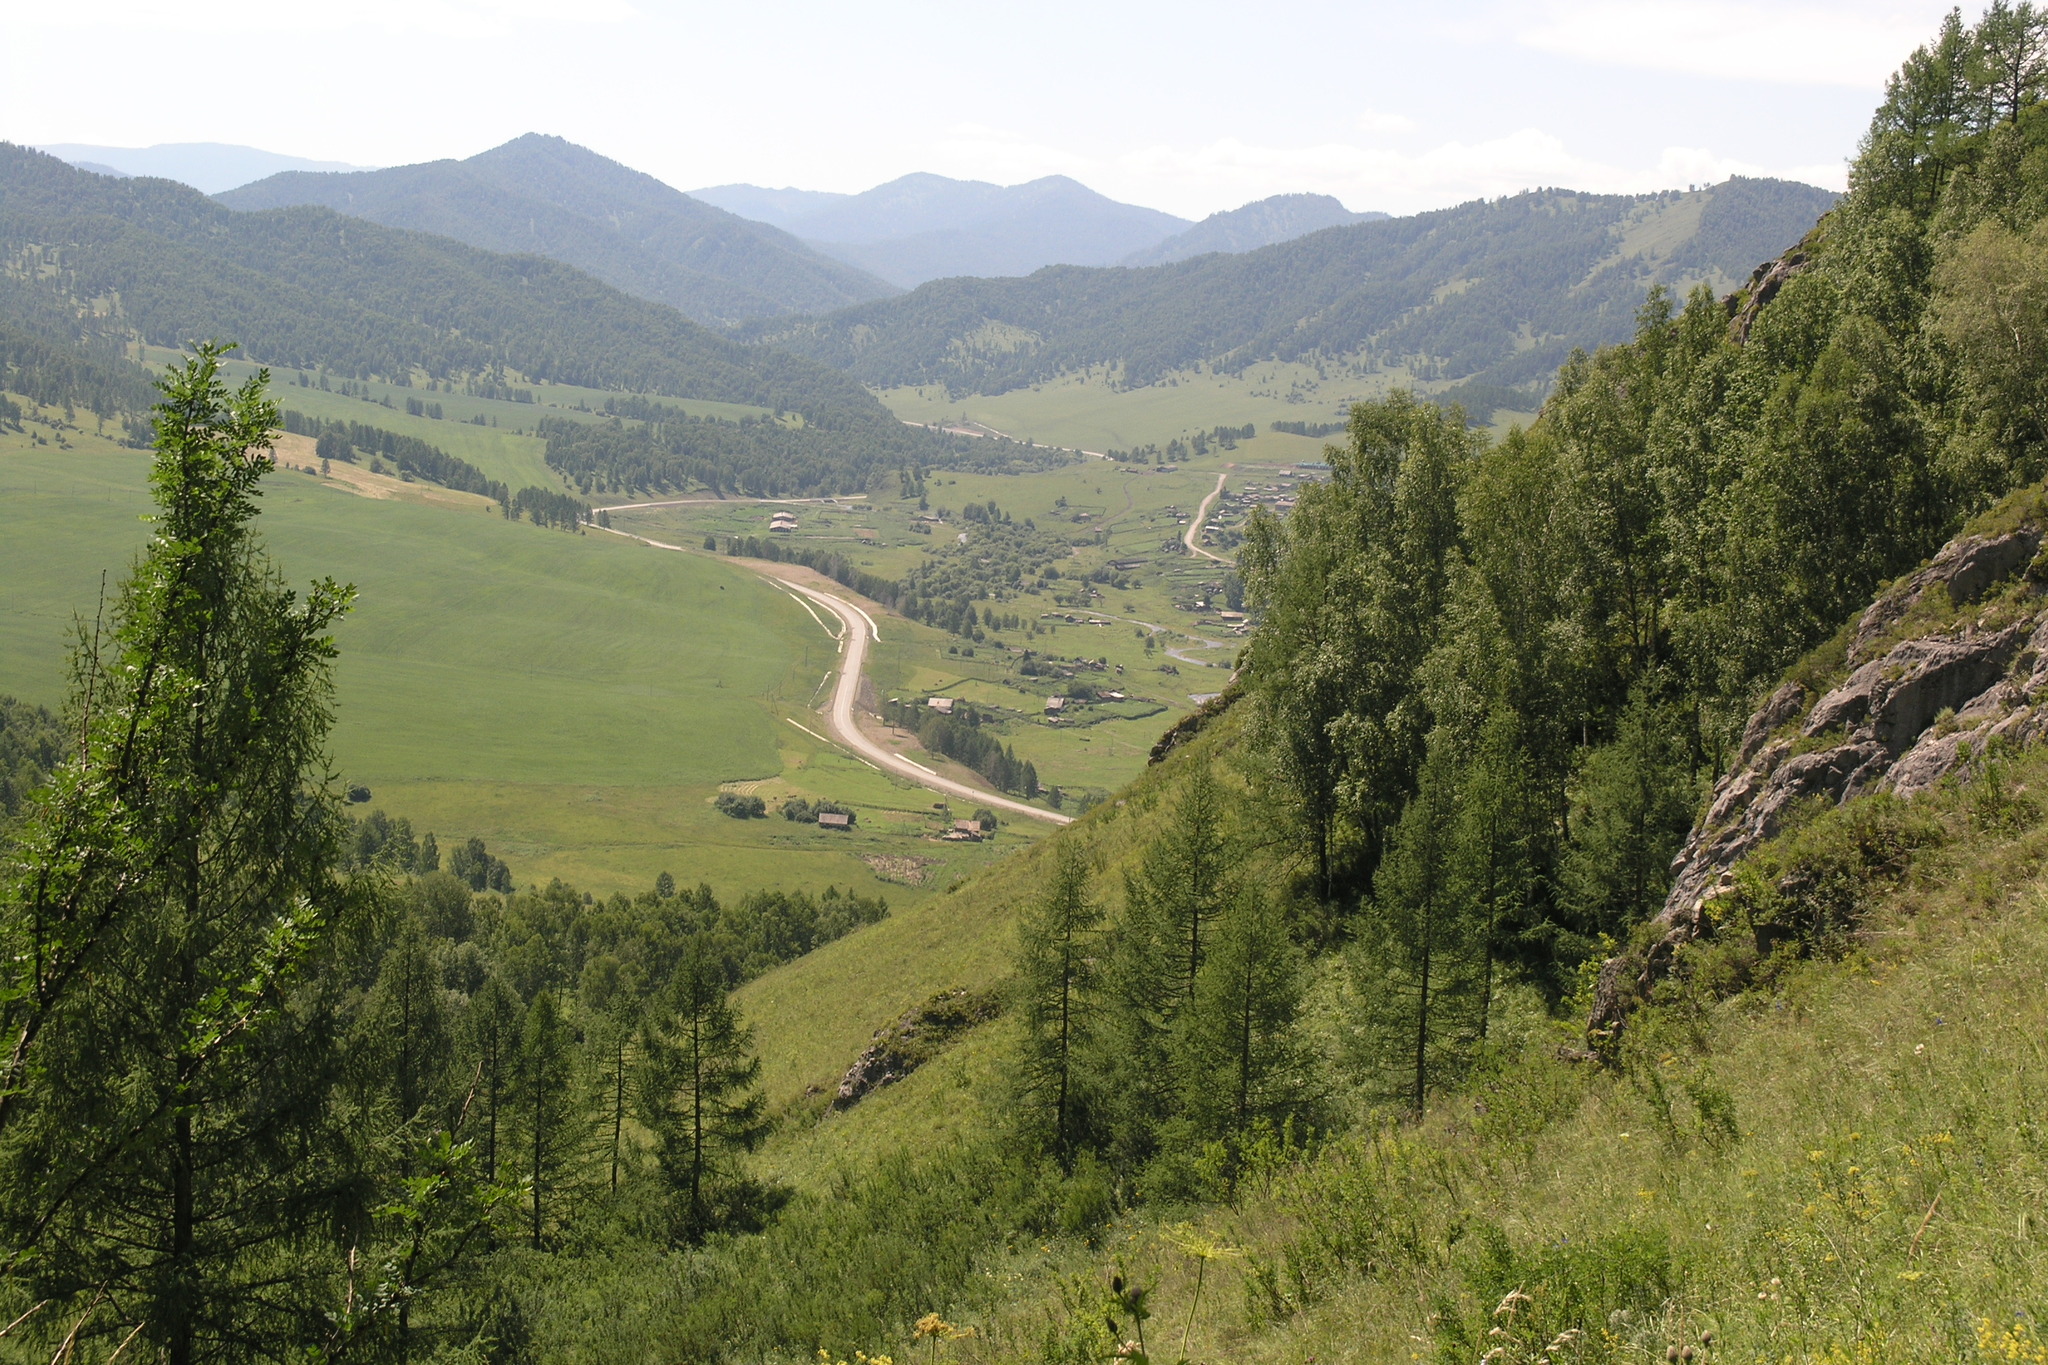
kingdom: Plantae
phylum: Tracheophyta
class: Pinopsida
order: Pinales
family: Pinaceae
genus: Larix
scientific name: Larix sibirica
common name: Siberian larch
